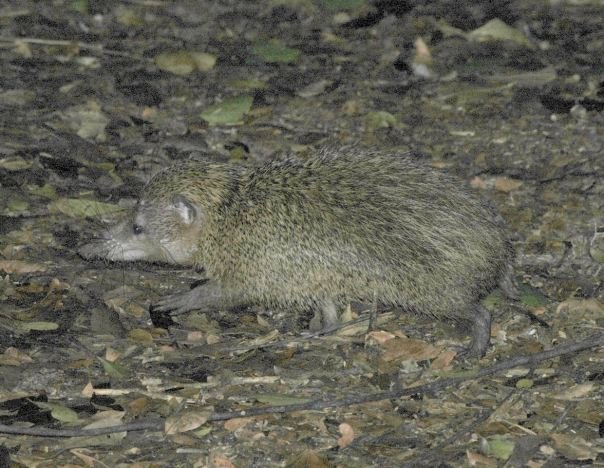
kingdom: Animalia
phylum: Chordata
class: Mammalia
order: Afrosoricida
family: Tenrecidae
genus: Tenrec
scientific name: Tenrec ecaudatus
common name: Common tenrec
